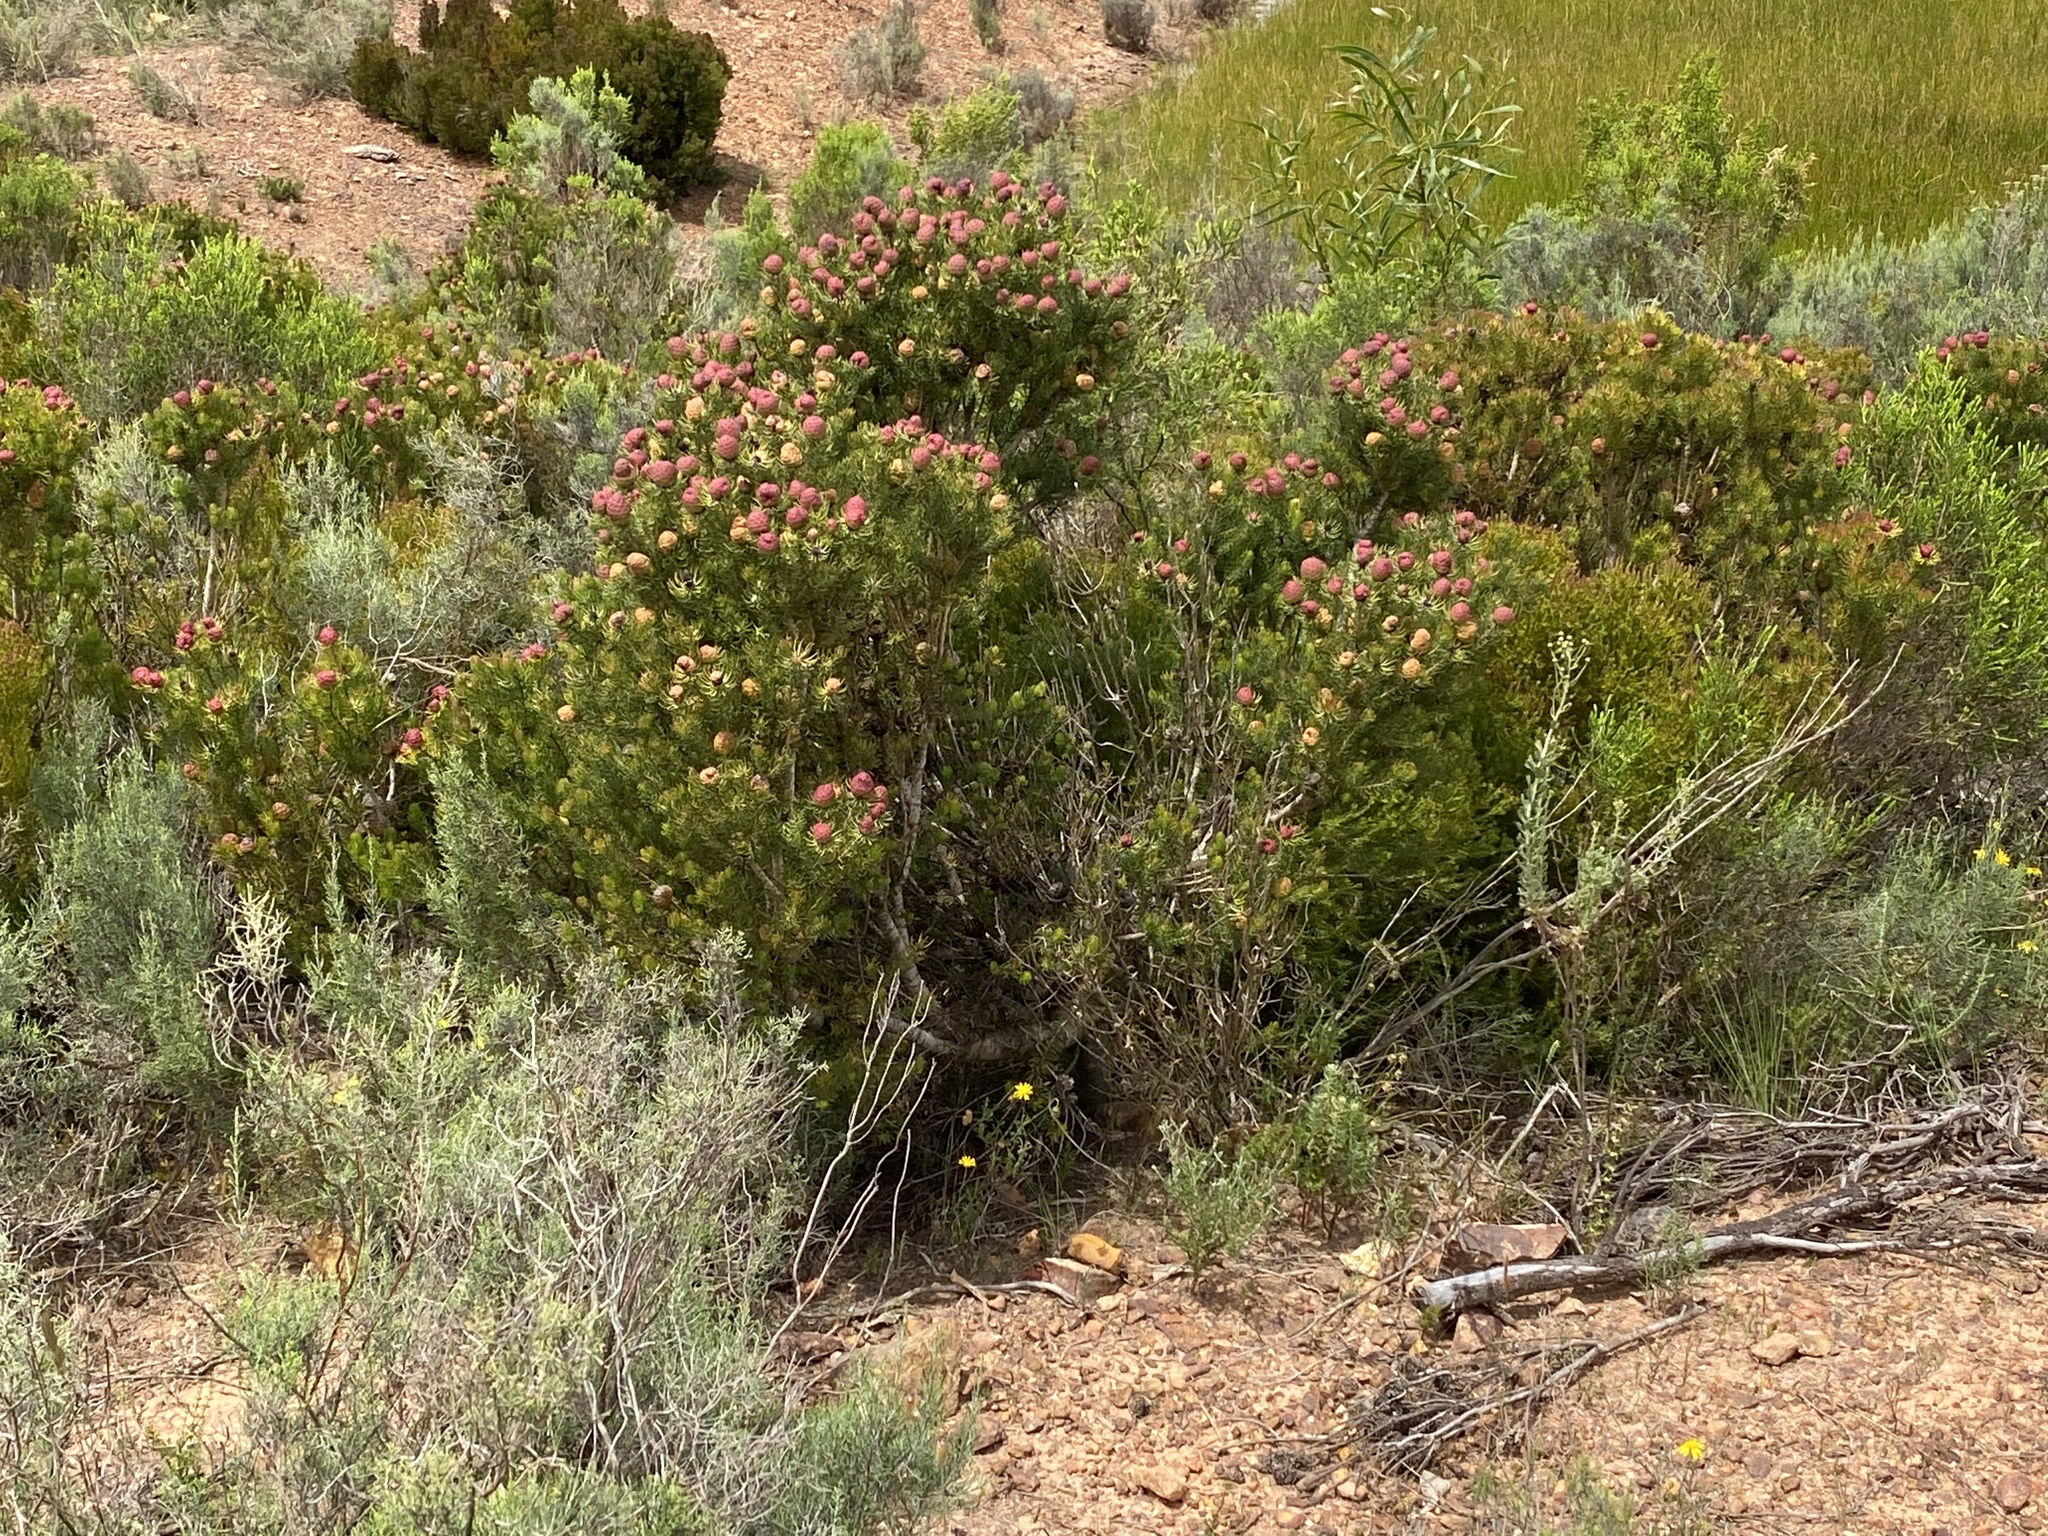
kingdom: Plantae
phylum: Tracheophyta
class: Magnoliopsida
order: Proteales
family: Proteaceae
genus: Leucadendron
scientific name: Leucadendron teretifolium
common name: Needle-leaf conebush
